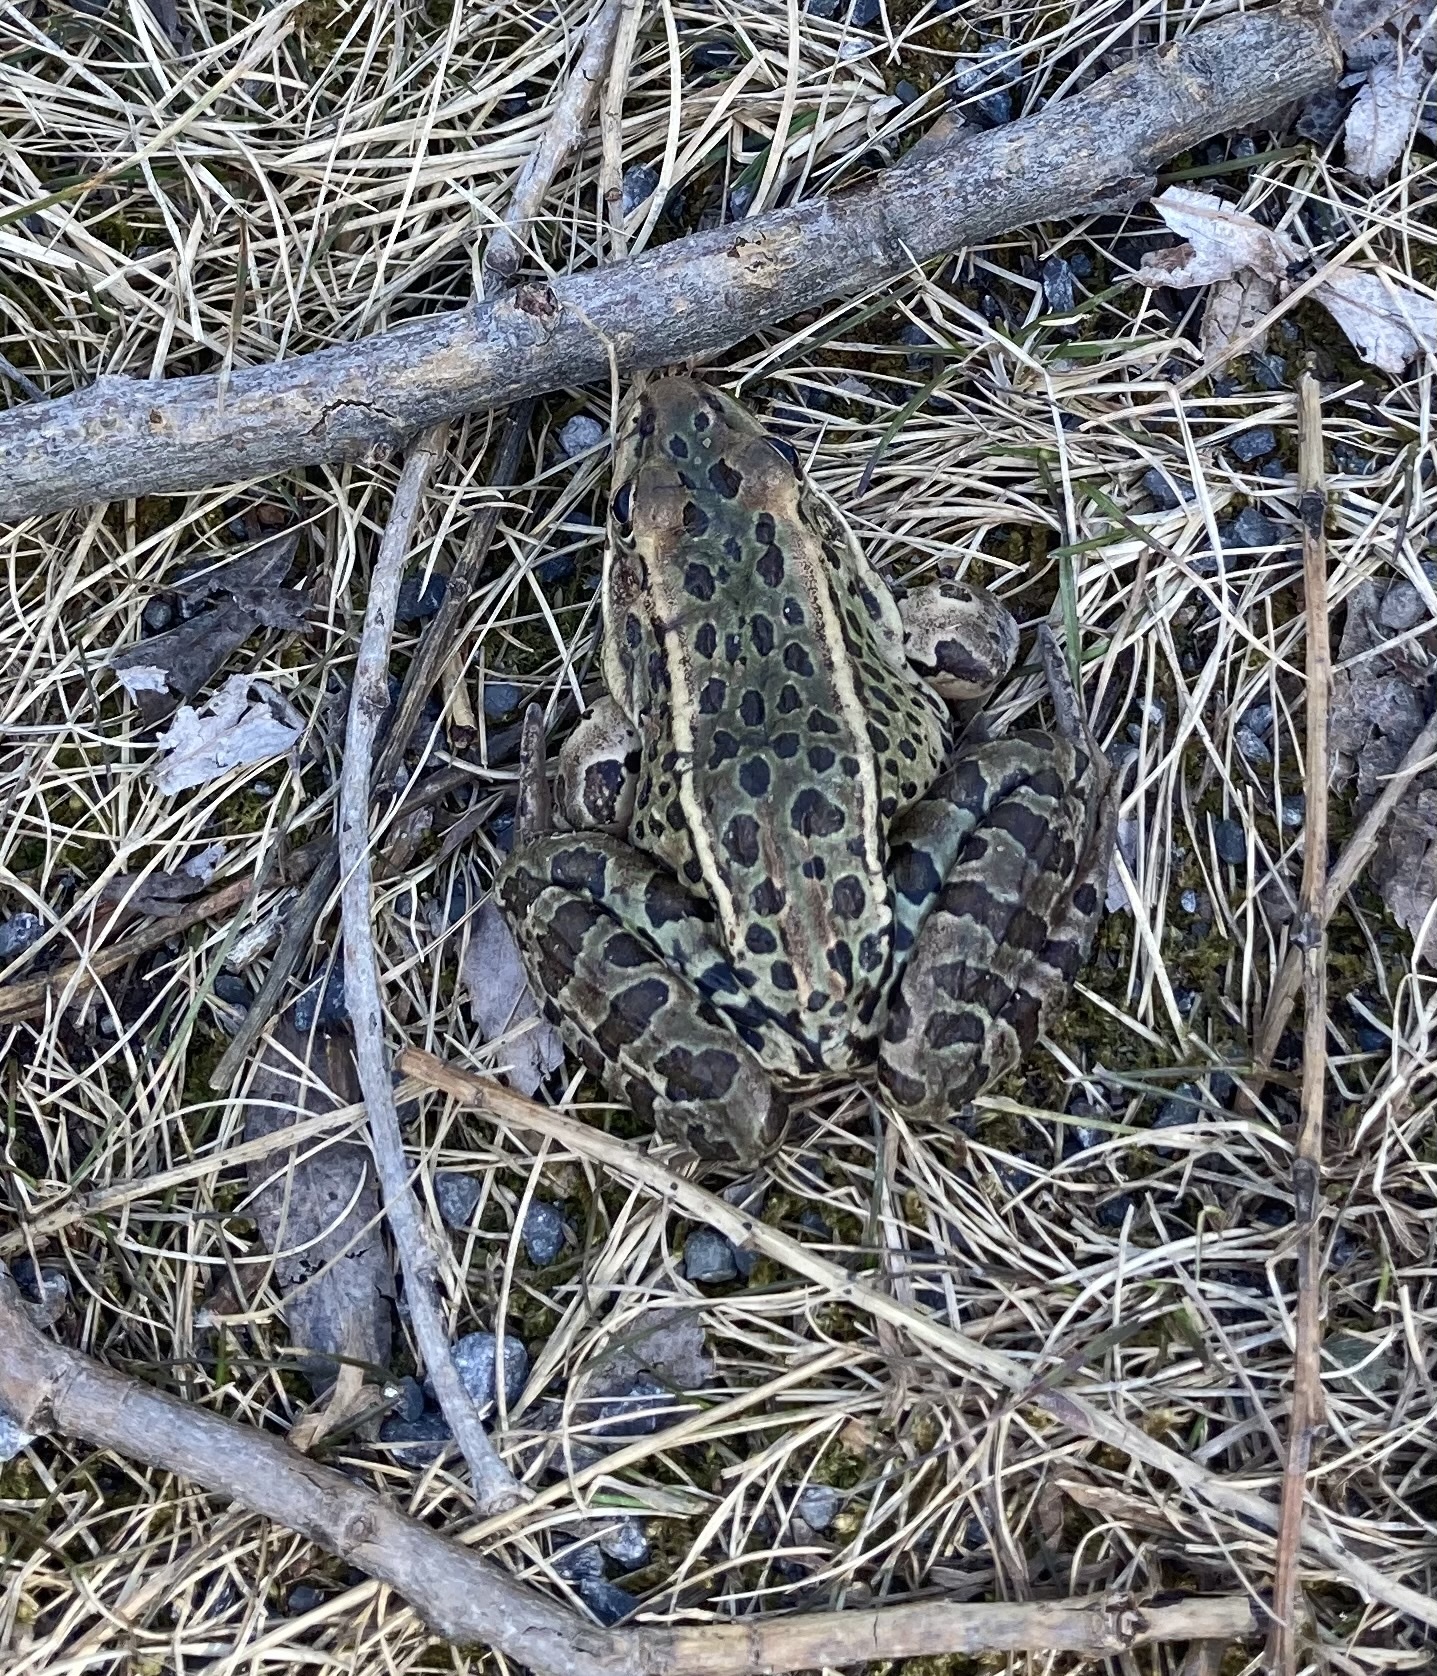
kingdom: Animalia
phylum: Chordata
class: Amphibia
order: Anura
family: Ranidae
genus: Lithobates
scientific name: Lithobates pipiens
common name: Northern leopard frog
